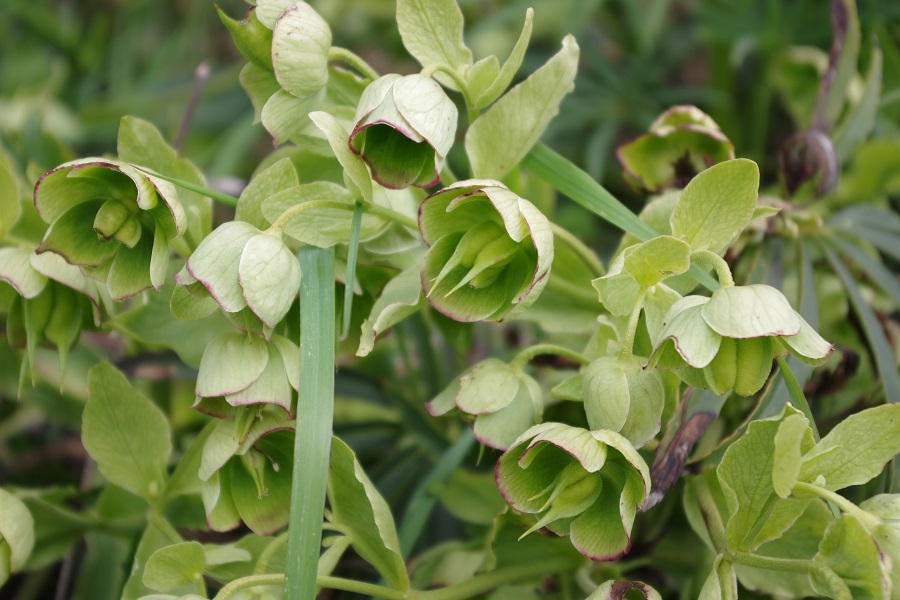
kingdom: Plantae
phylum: Tracheophyta
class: Magnoliopsida
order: Ranunculales
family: Ranunculaceae
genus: Helleborus
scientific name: Helleborus foetidus
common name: Stinking hellebore
